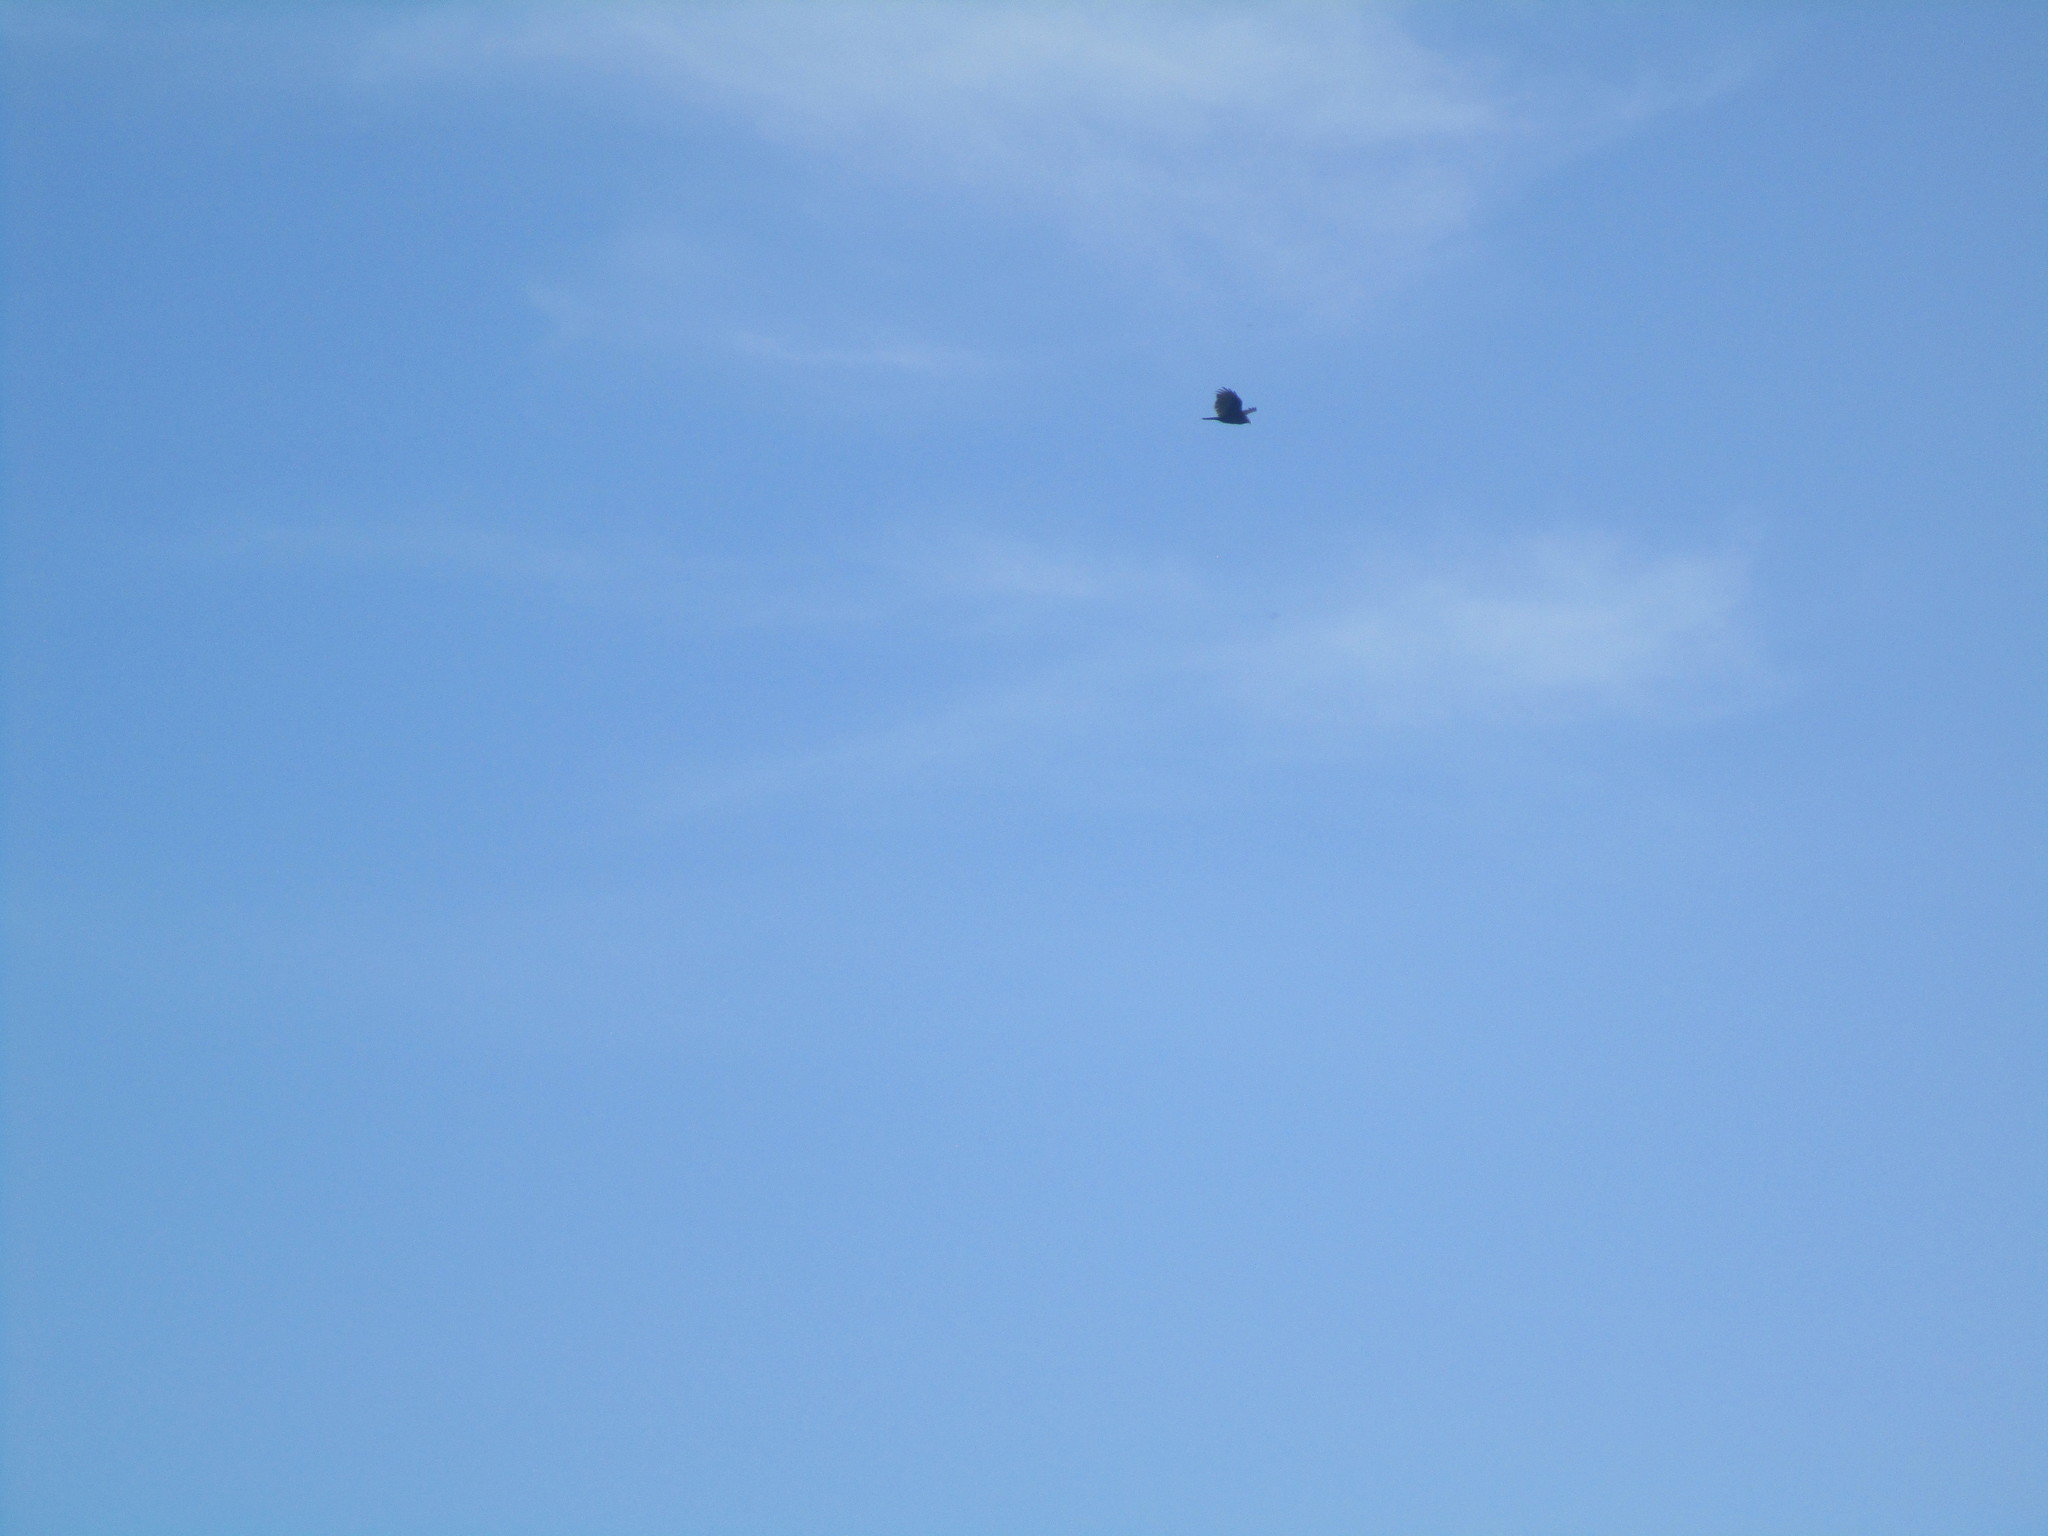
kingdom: Animalia
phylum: Chordata
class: Aves
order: Accipitriformes
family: Cathartidae
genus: Cathartes
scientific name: Cathartes aura
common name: Turkey vulture
